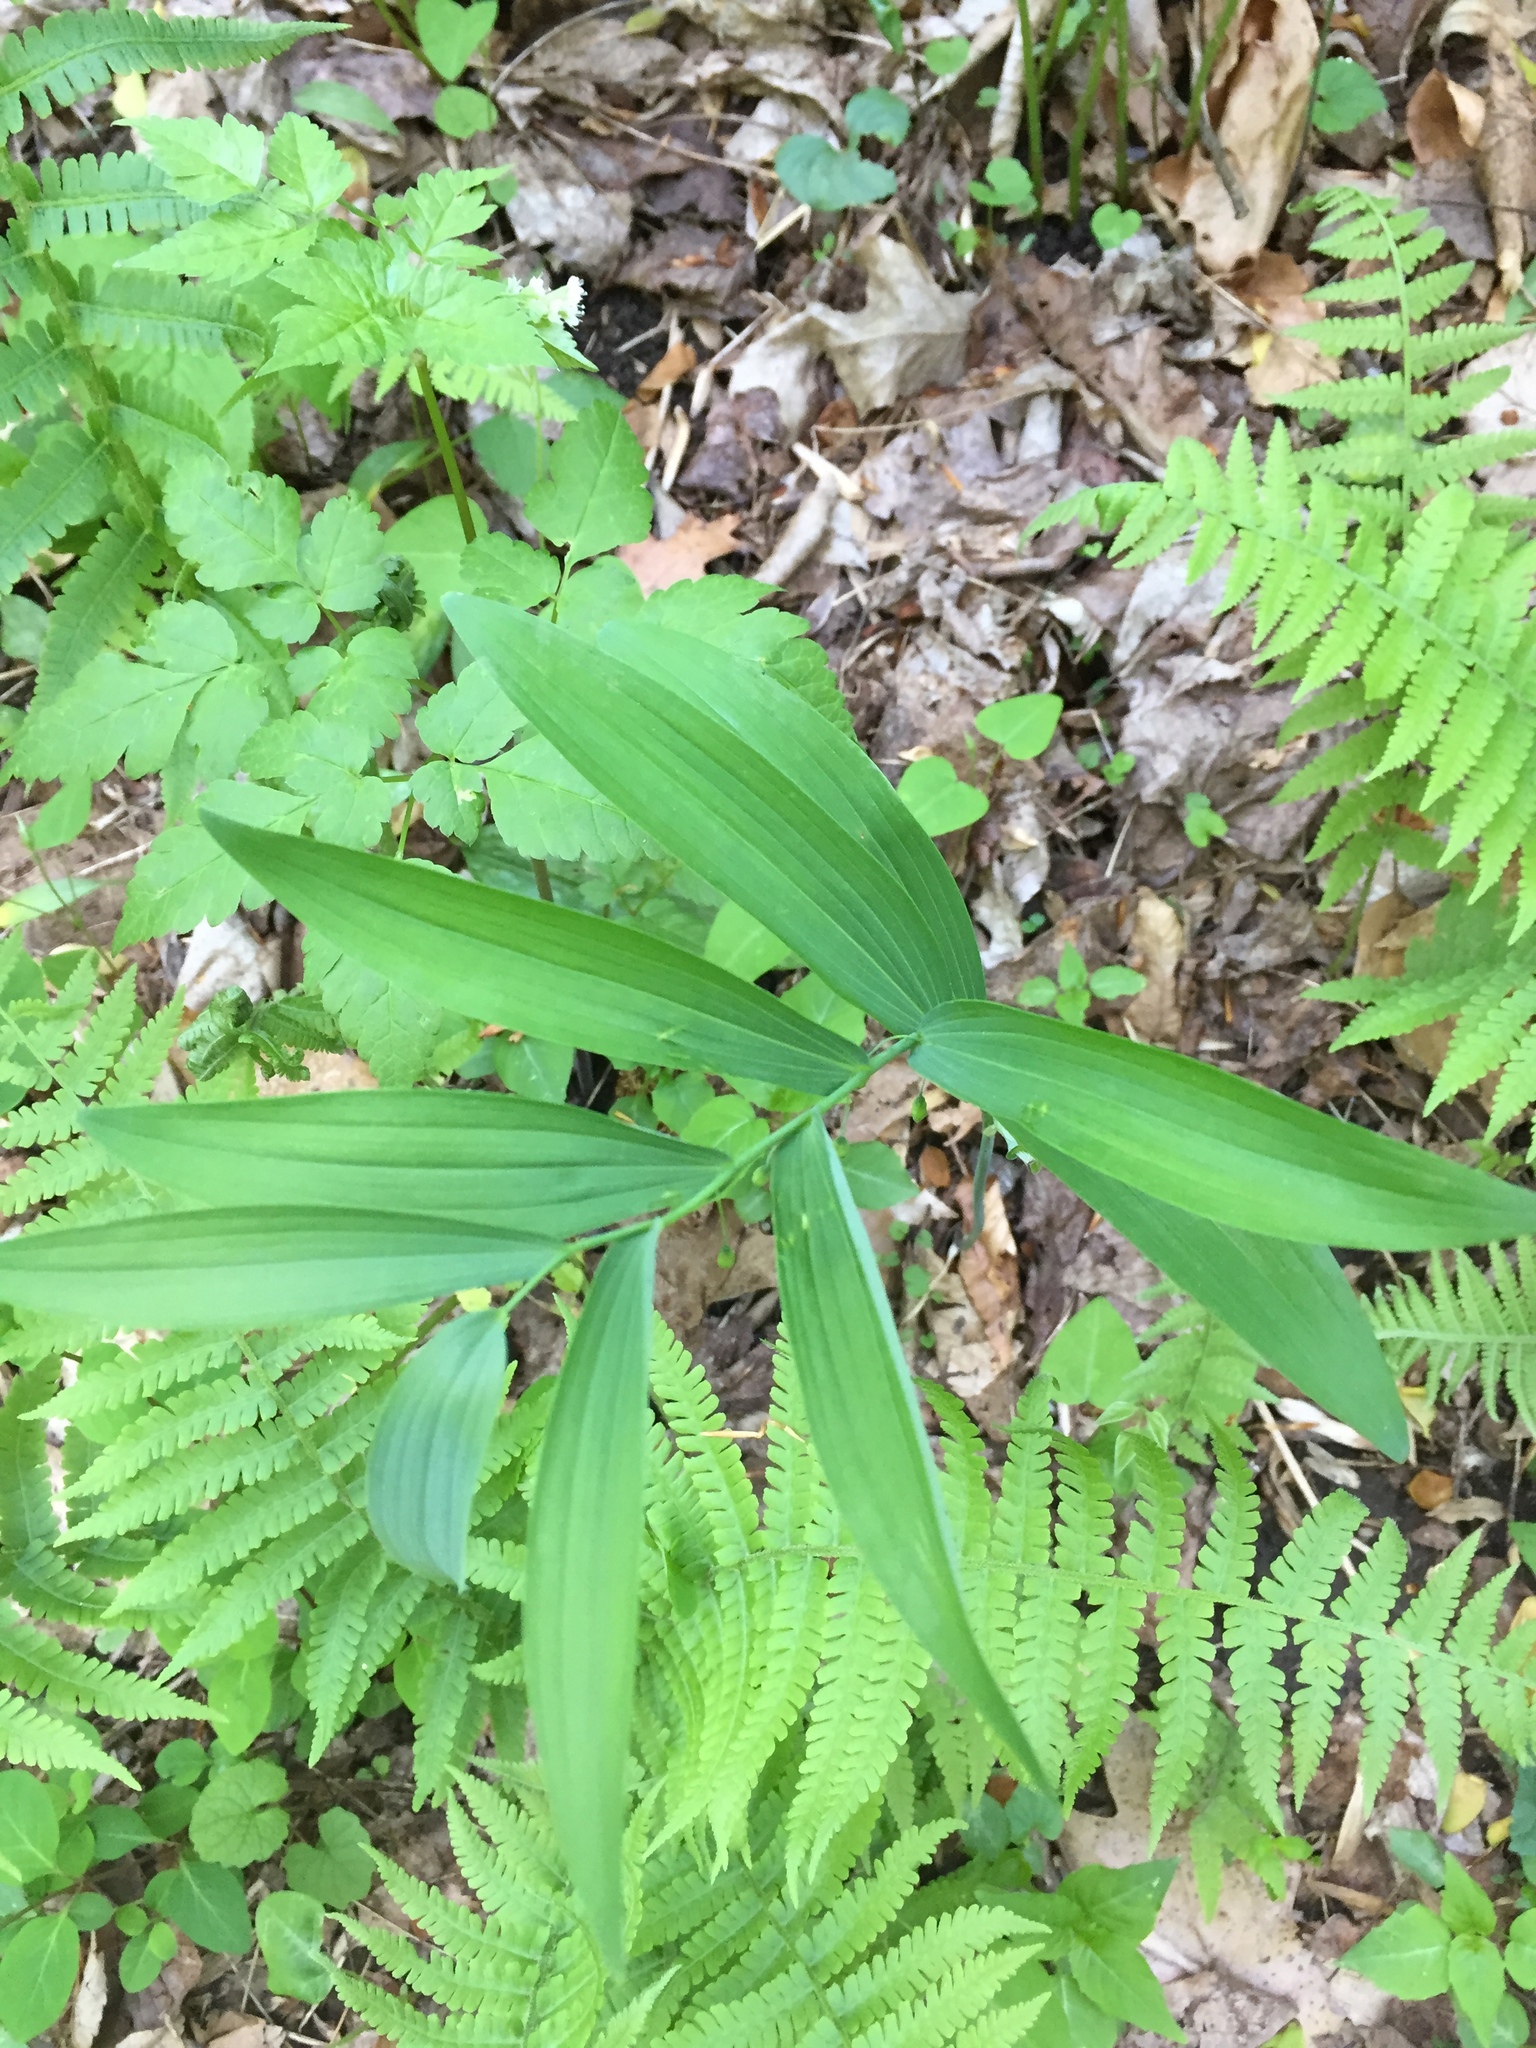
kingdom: Plantae
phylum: Tracheophyta
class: Liliopsida
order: Asparagales
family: Asparagaceae
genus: Polygonatum
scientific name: Polygonatum biflorum
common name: American solomon's-seal
